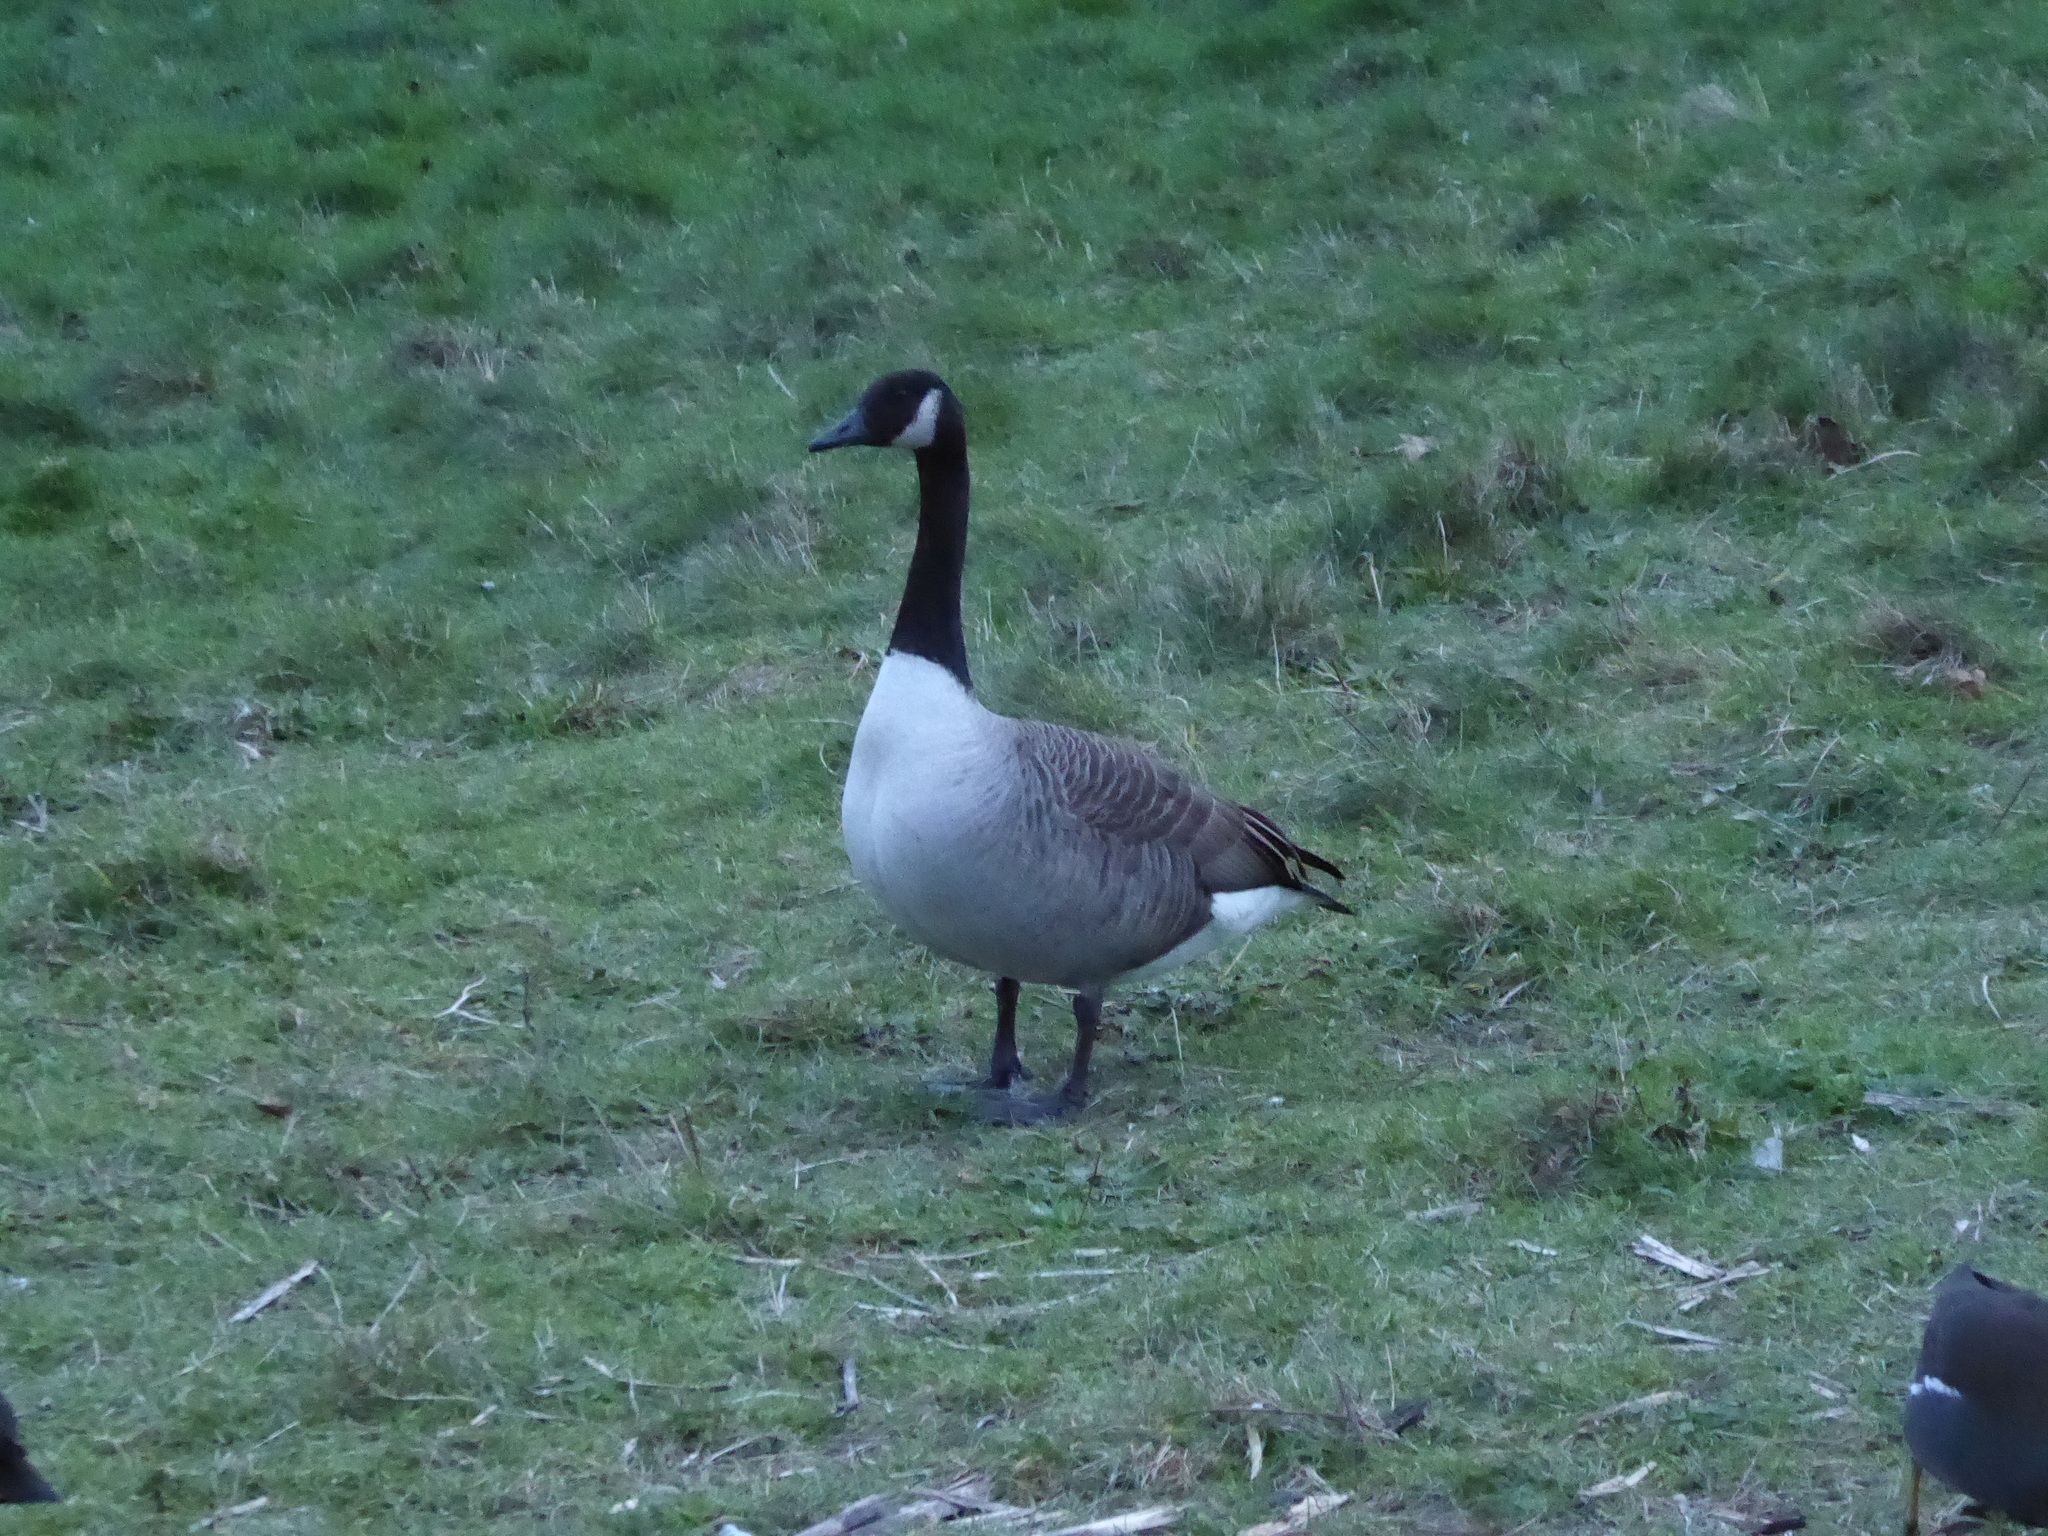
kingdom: Animalia
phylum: Chordata
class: Aves
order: Anseriformes
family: Anatidae
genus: Branta
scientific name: Branta canadensis
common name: Canada goose
